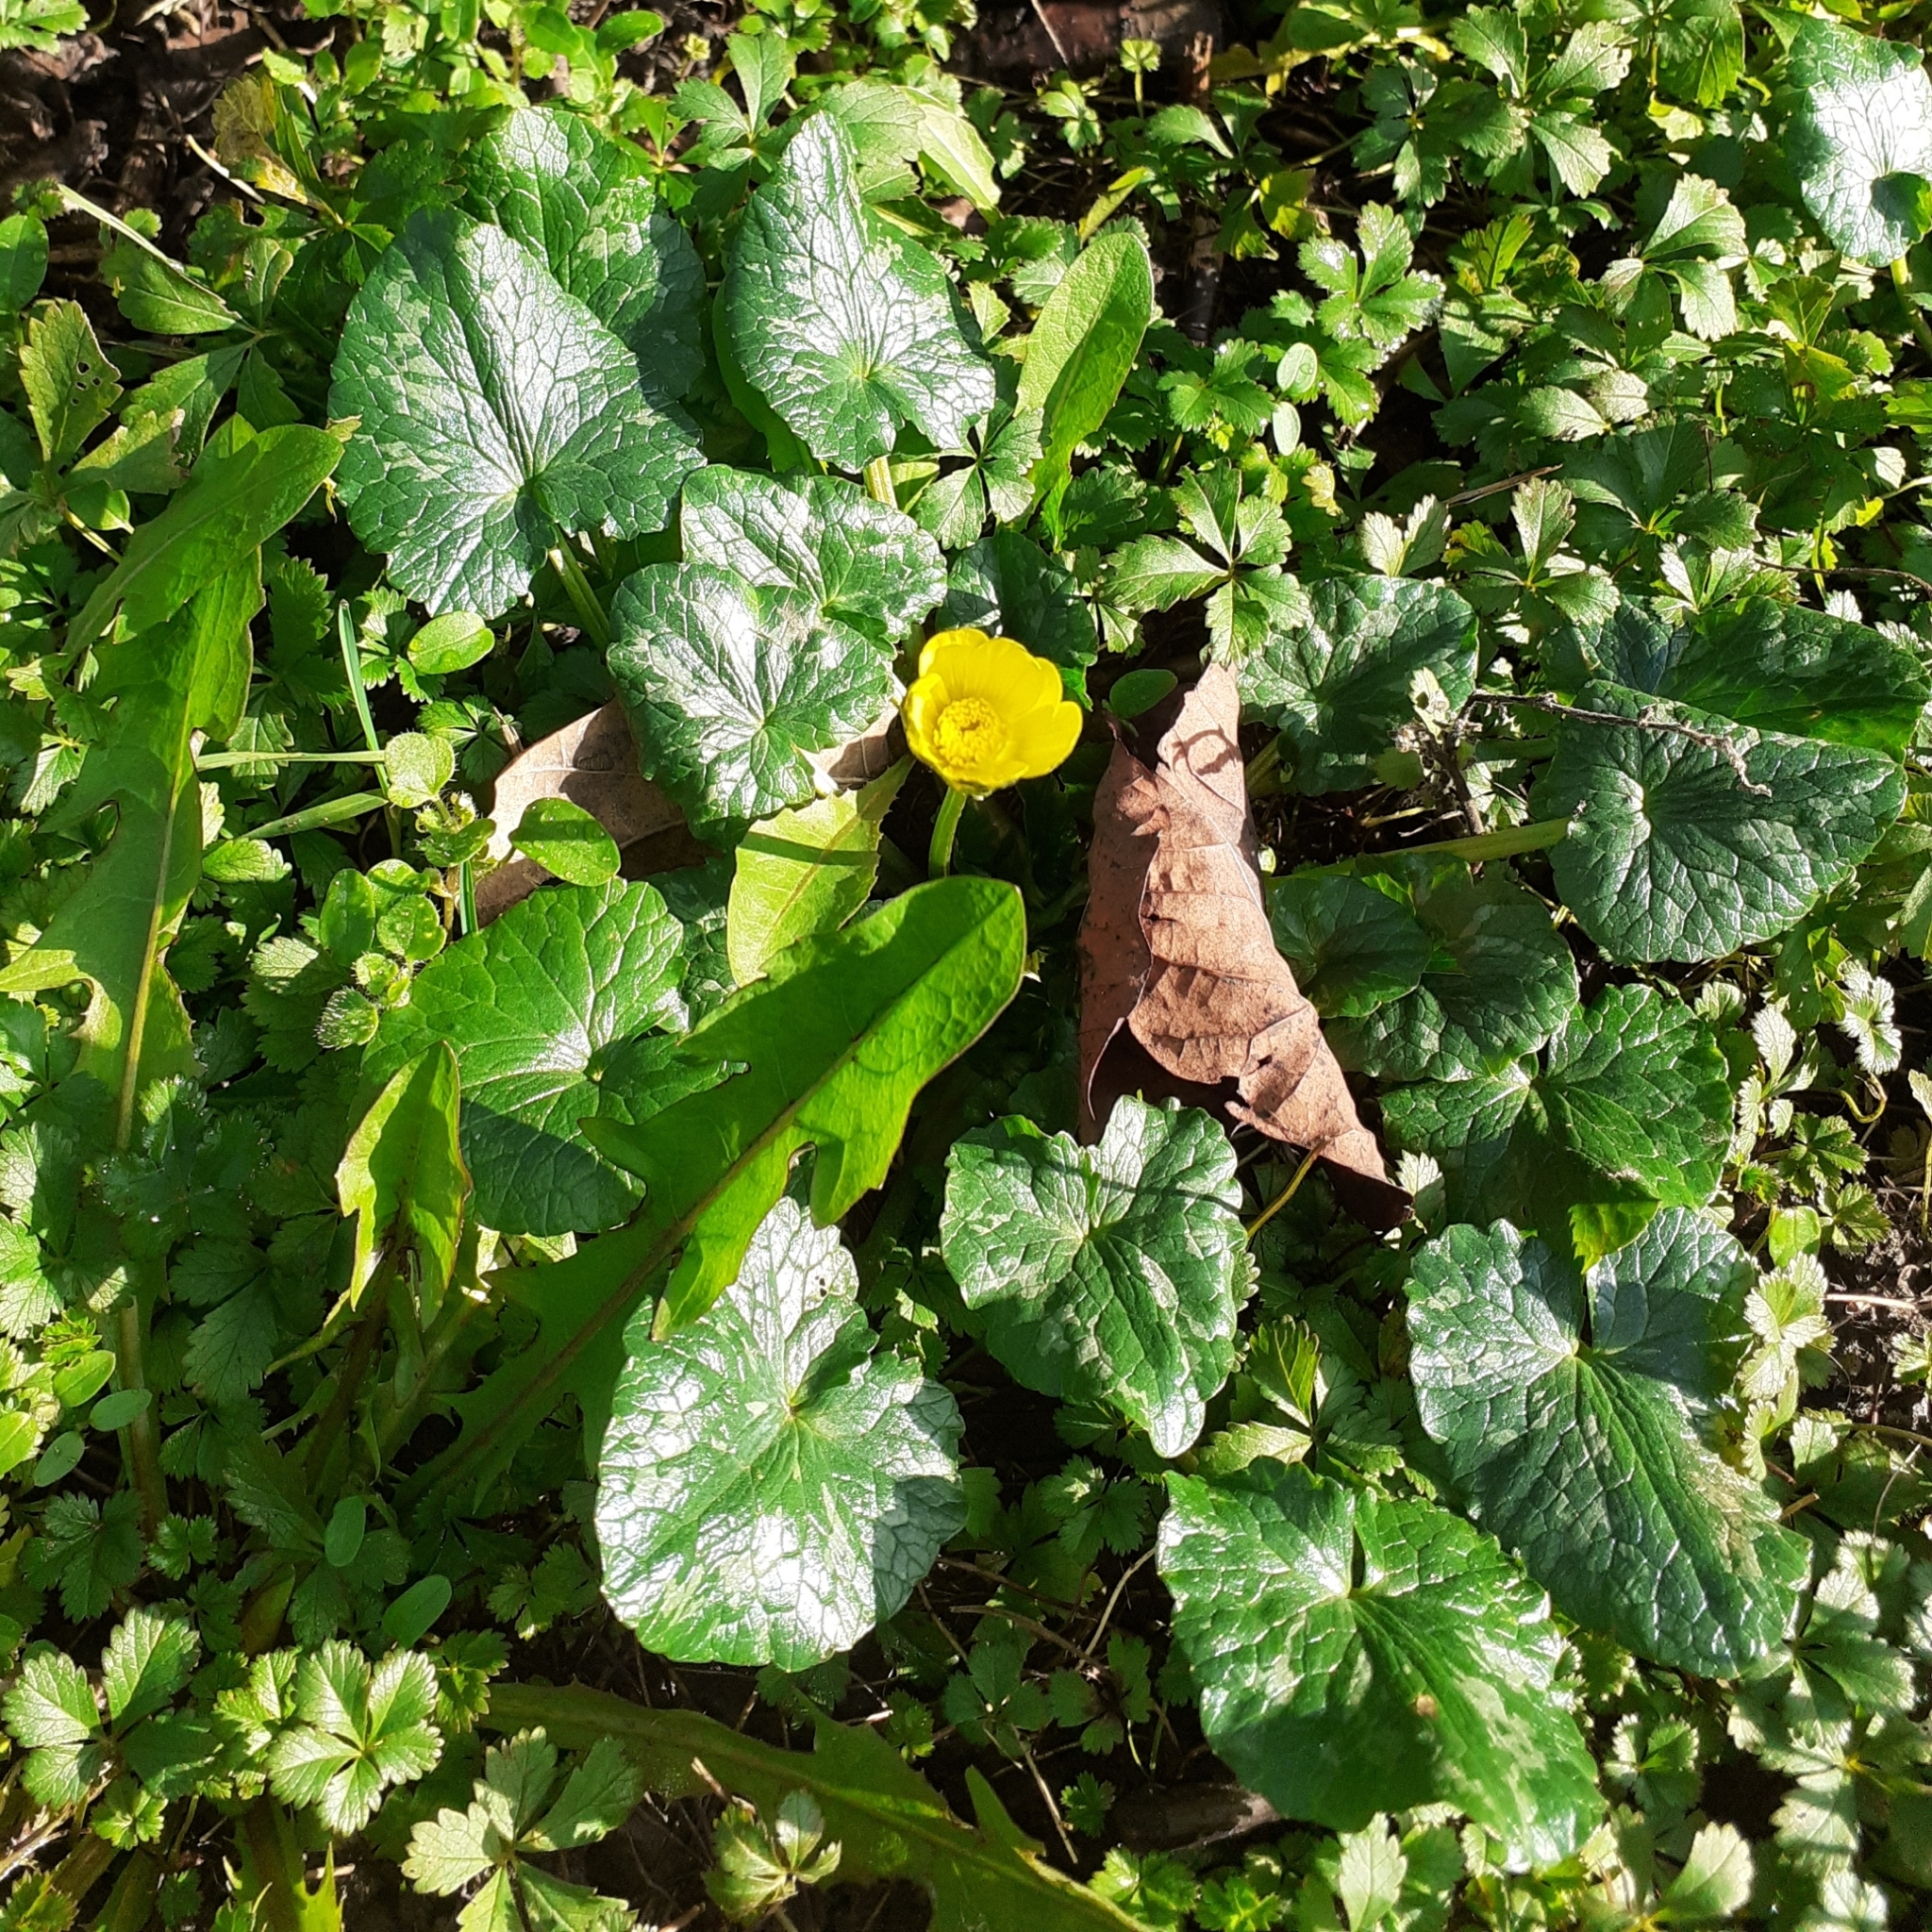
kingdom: Plantae
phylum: Tracheophyta
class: Magnoliopsida
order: Ranunculales
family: Ranunculaceae
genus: Ficaria
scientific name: Ficaria verna
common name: Lesser celandine
